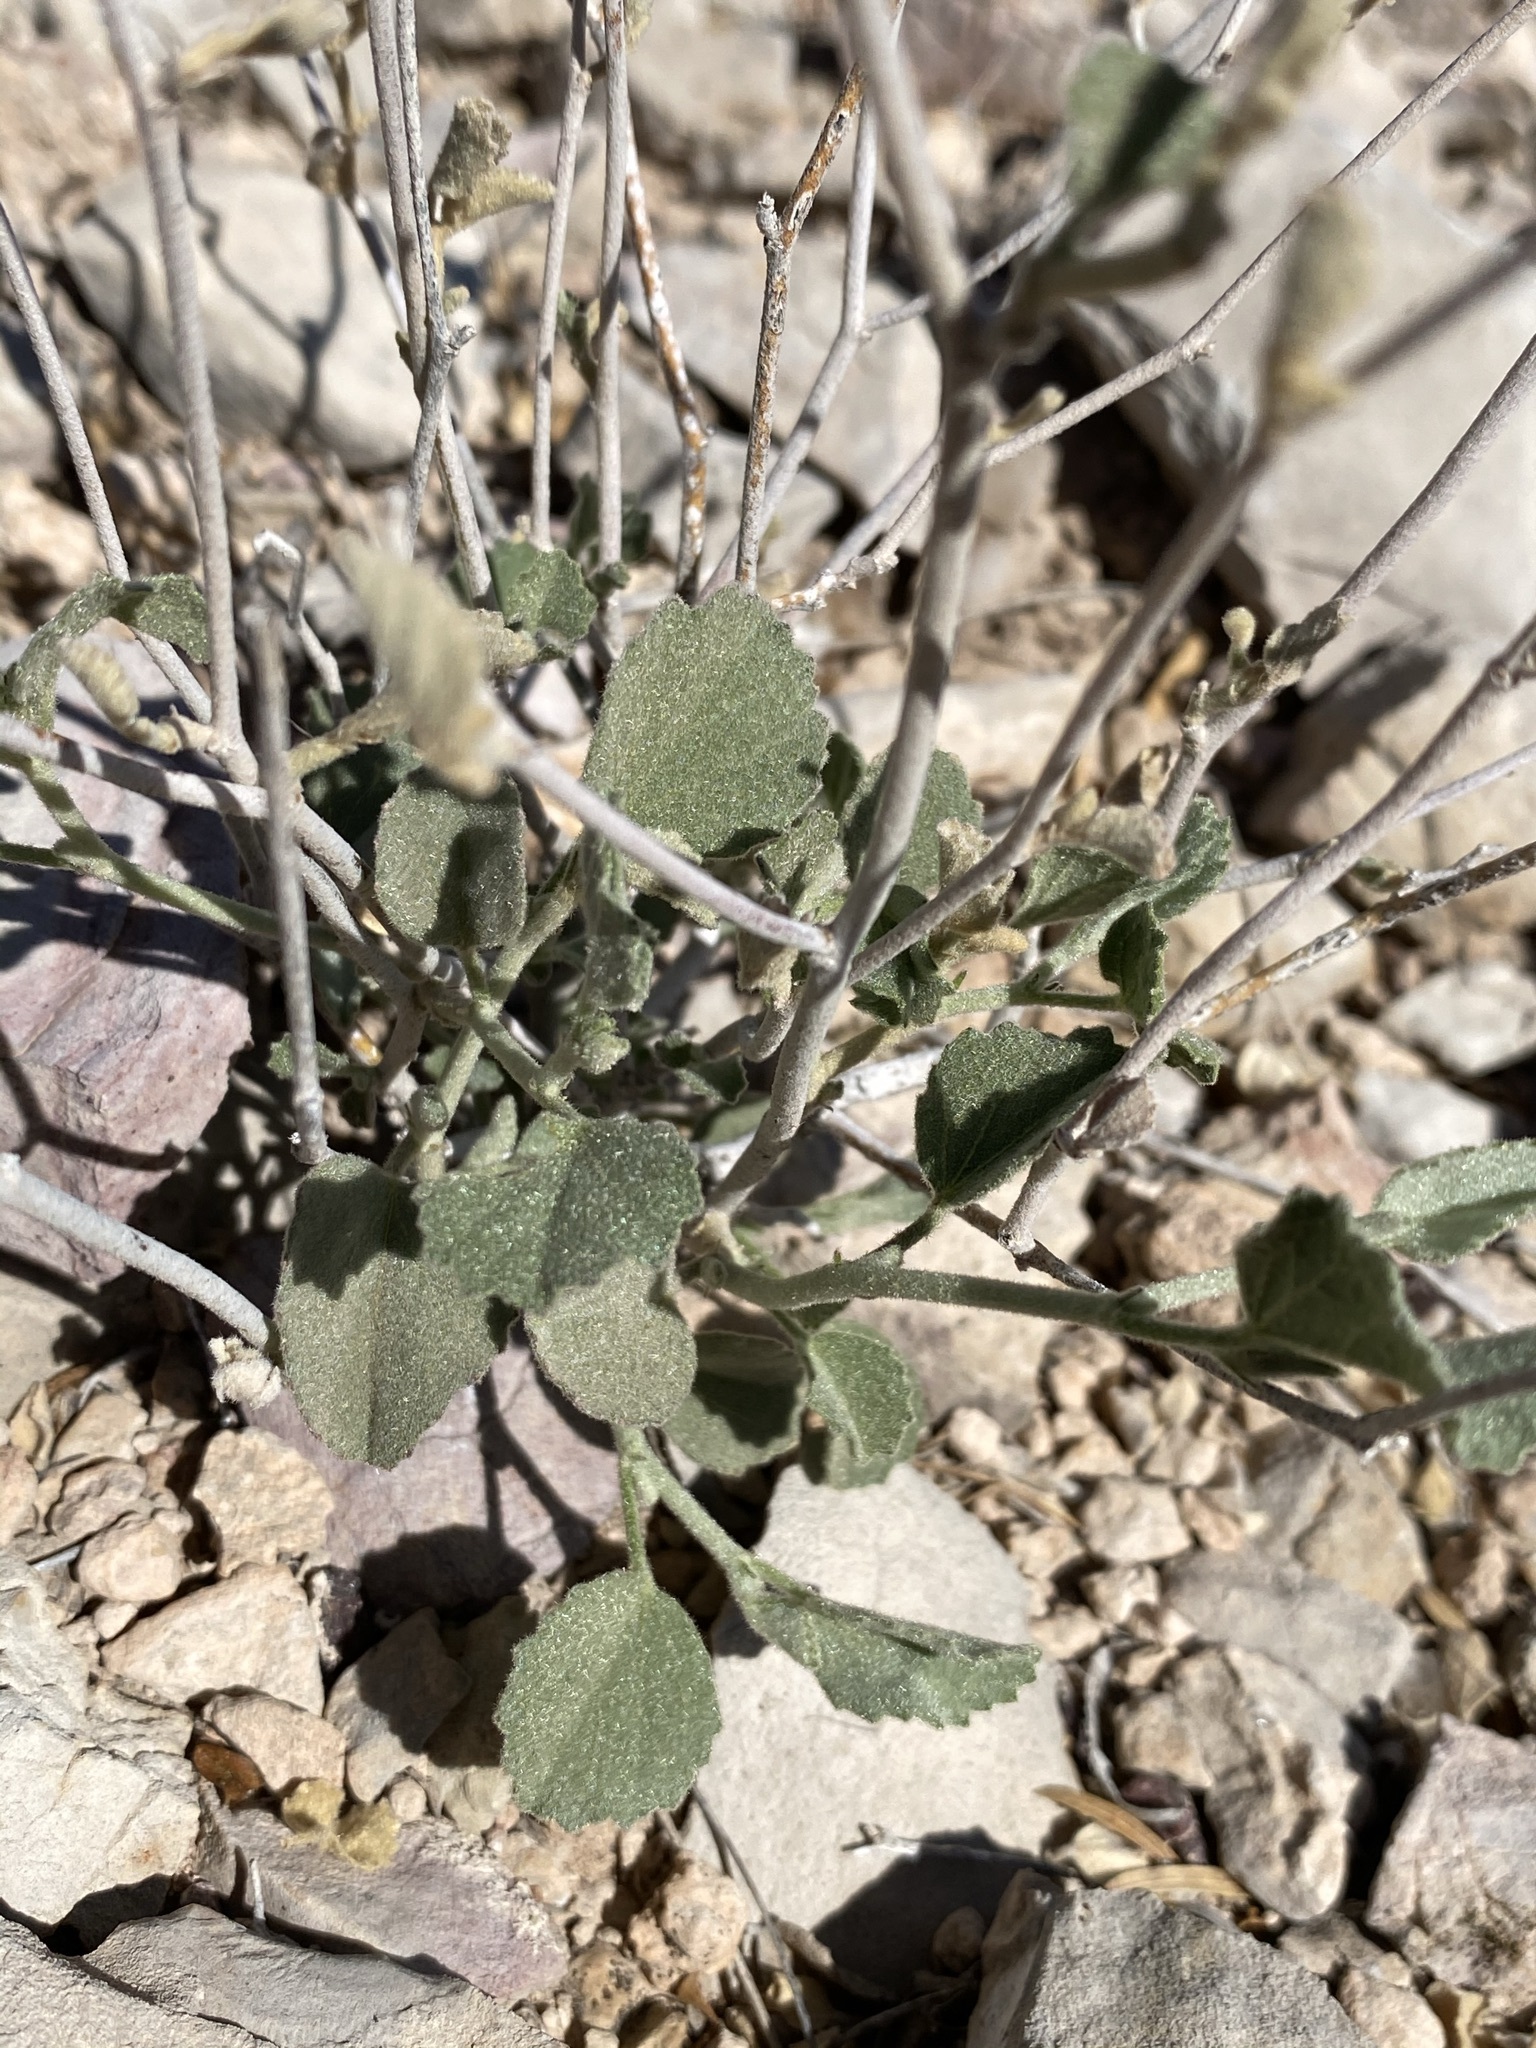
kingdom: Plantae
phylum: Tracheophyta
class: Magnoliopsida
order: Malvales
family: Malvaceae
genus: Hibiscus
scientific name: Hibiscus denudatus
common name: Paleface
